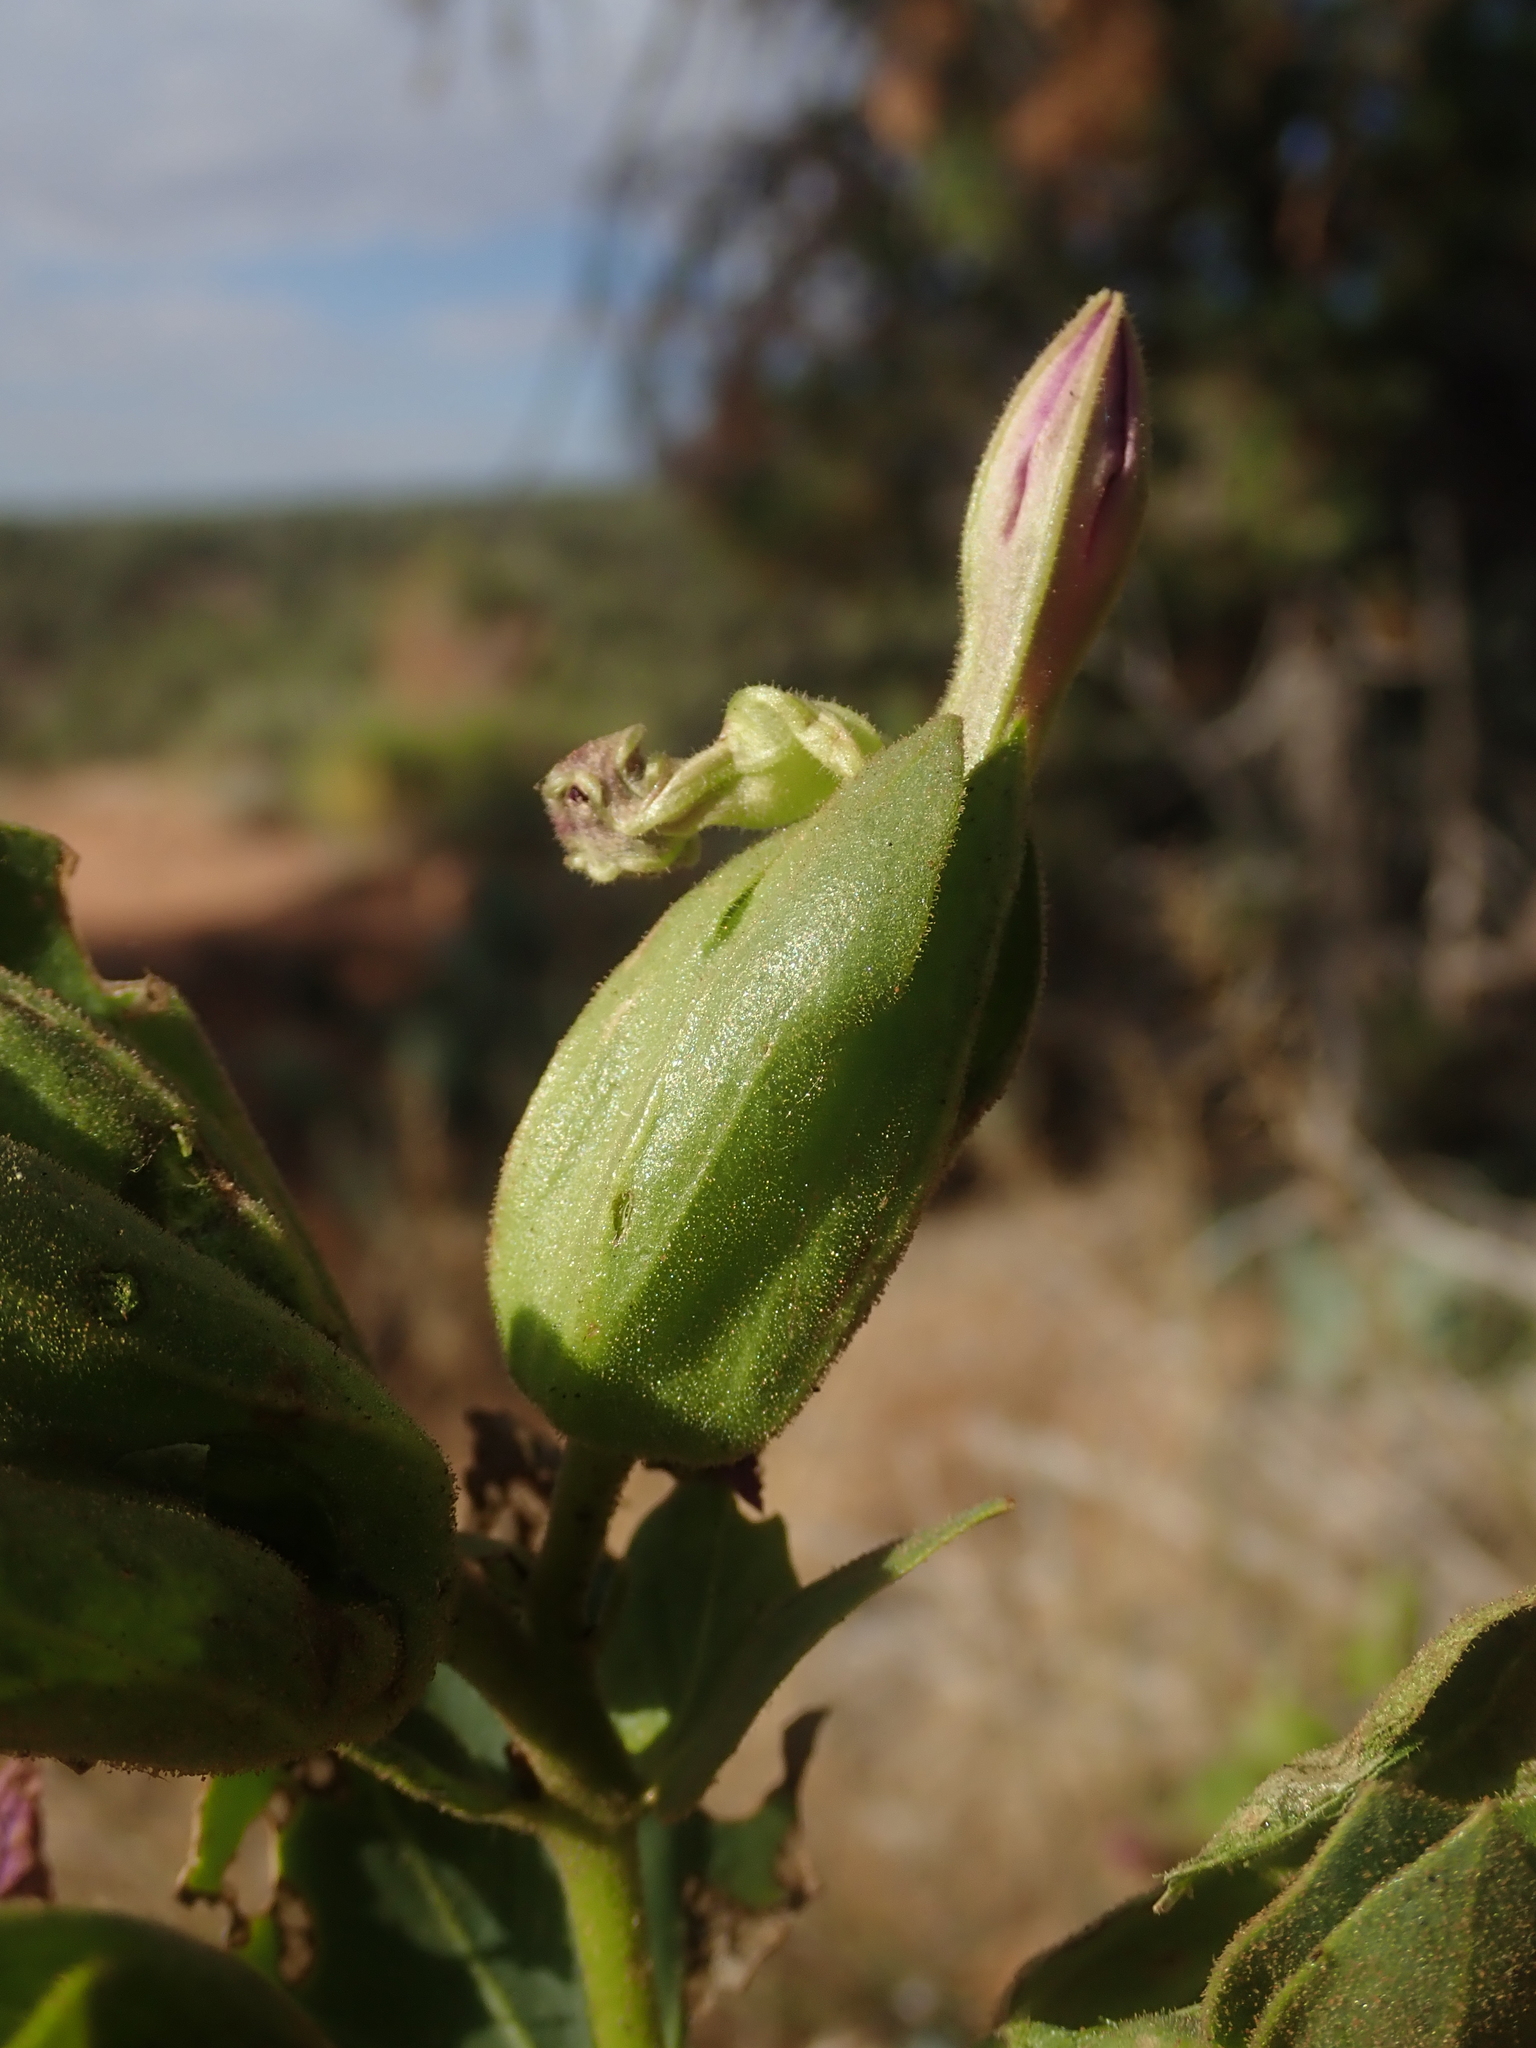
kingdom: Plantae
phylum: Tracheophyta
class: Magnoliopsida
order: Caryophyllales
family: Nyctaginaceae
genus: Mirabilis
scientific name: Mirabilis multiflora
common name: Froebel's four-o'clock
